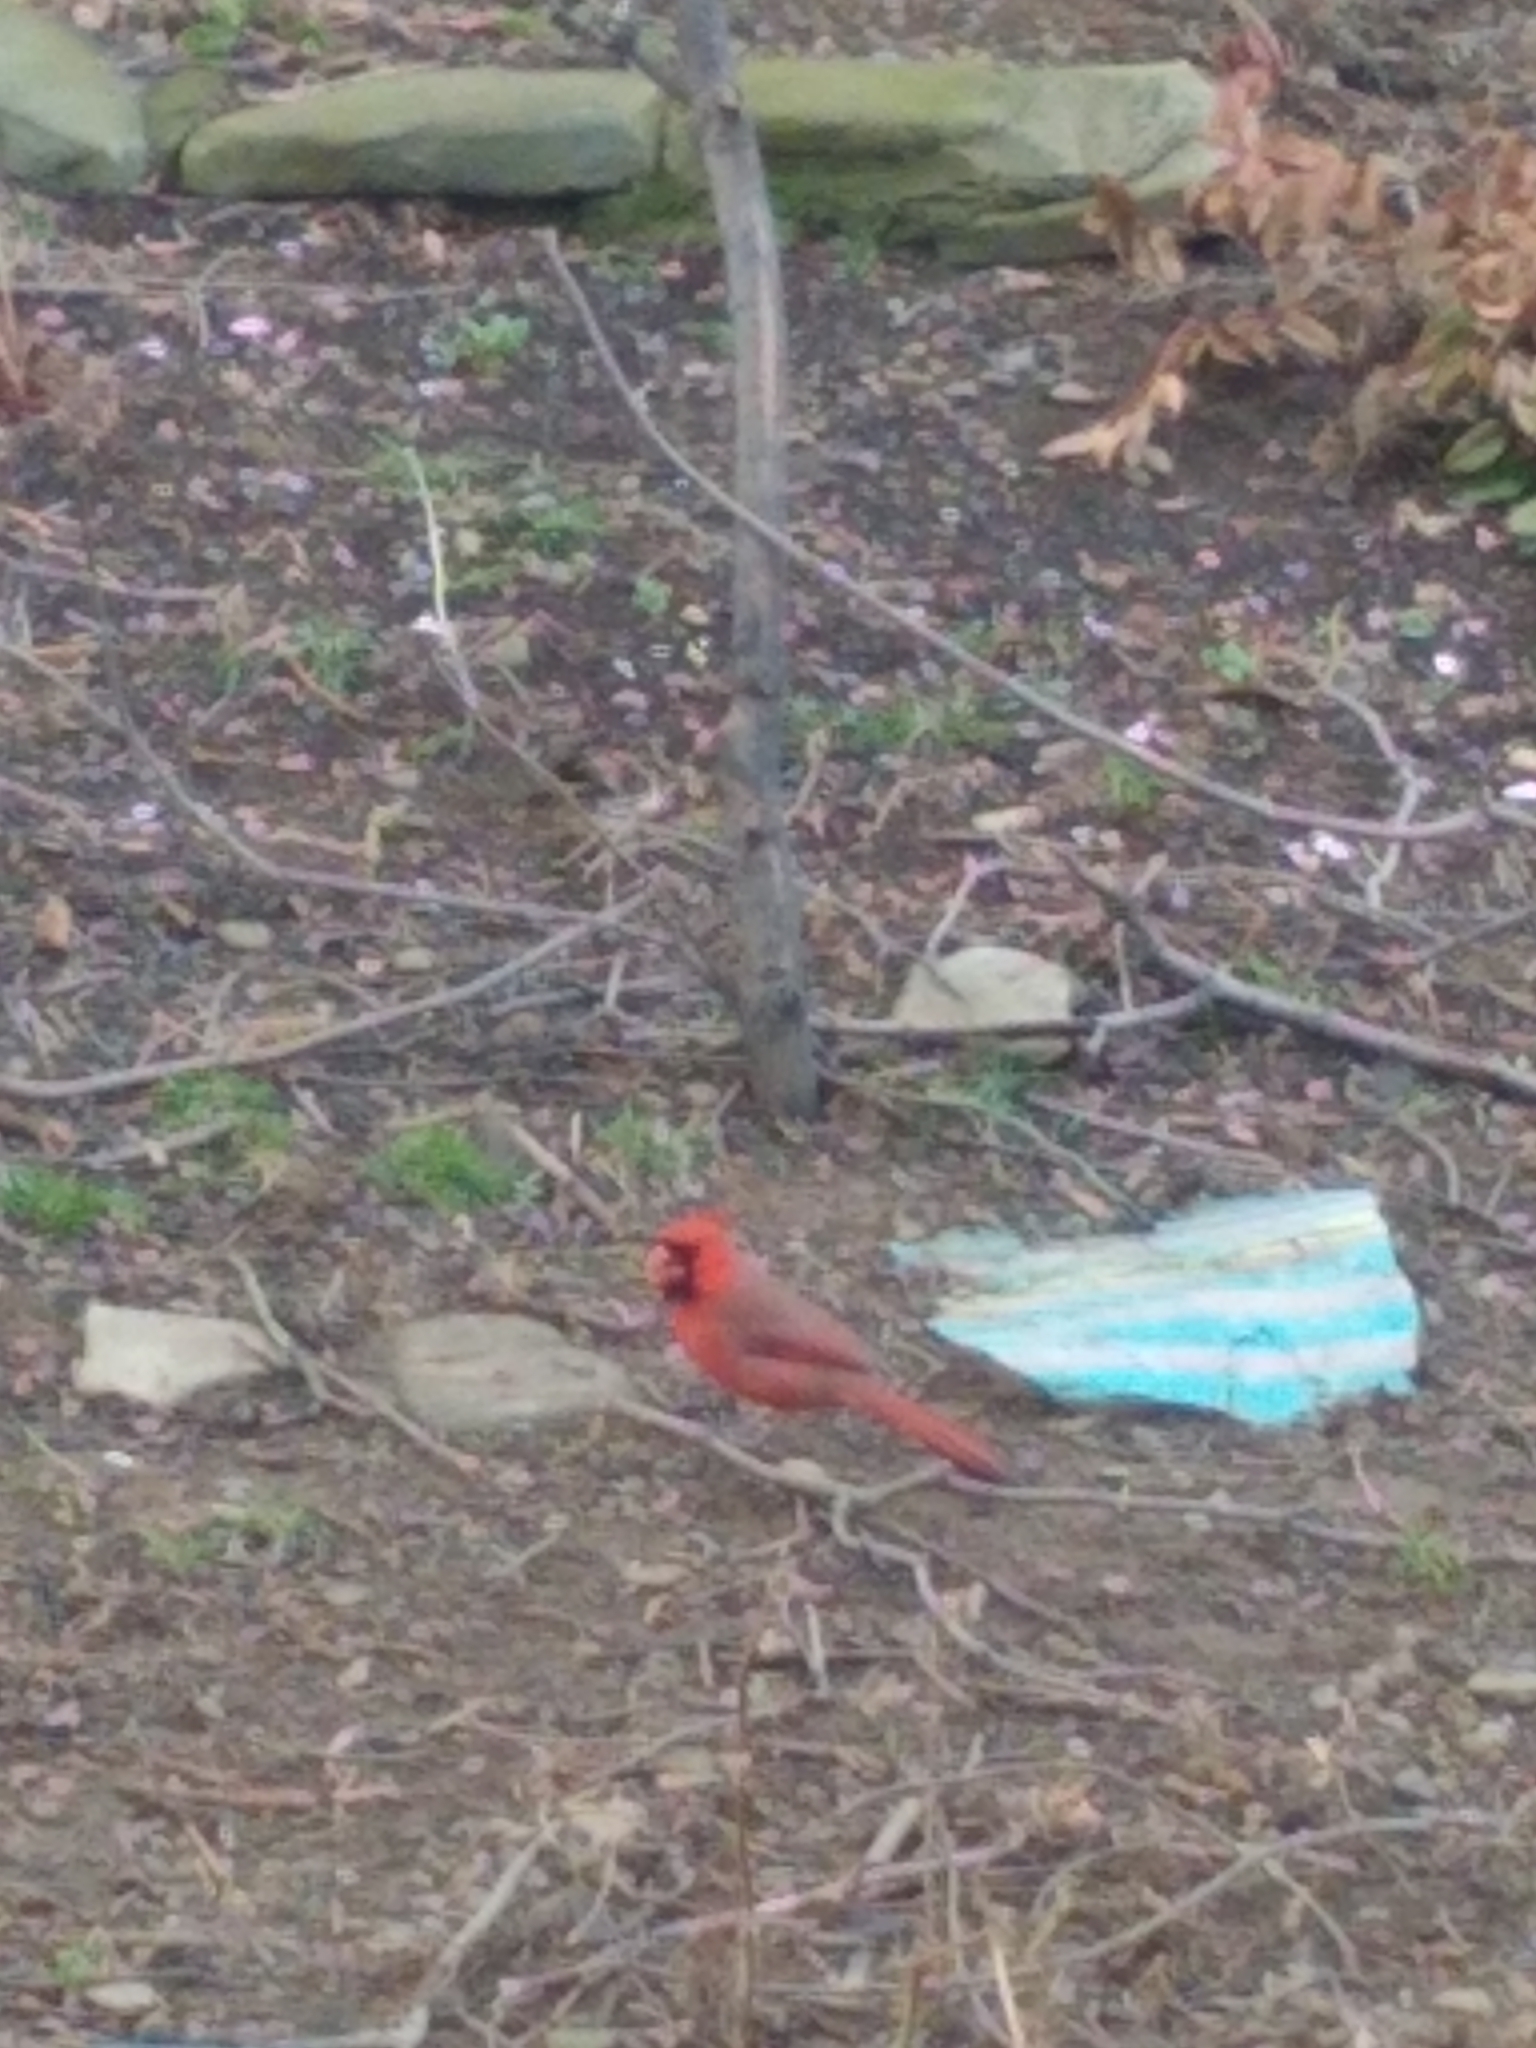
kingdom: Animalia
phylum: Chordata
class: Aves
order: Passeriformes
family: Cardinalidae
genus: Cardinalis
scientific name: Cardinalis cardinalis
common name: Northern cardinal
